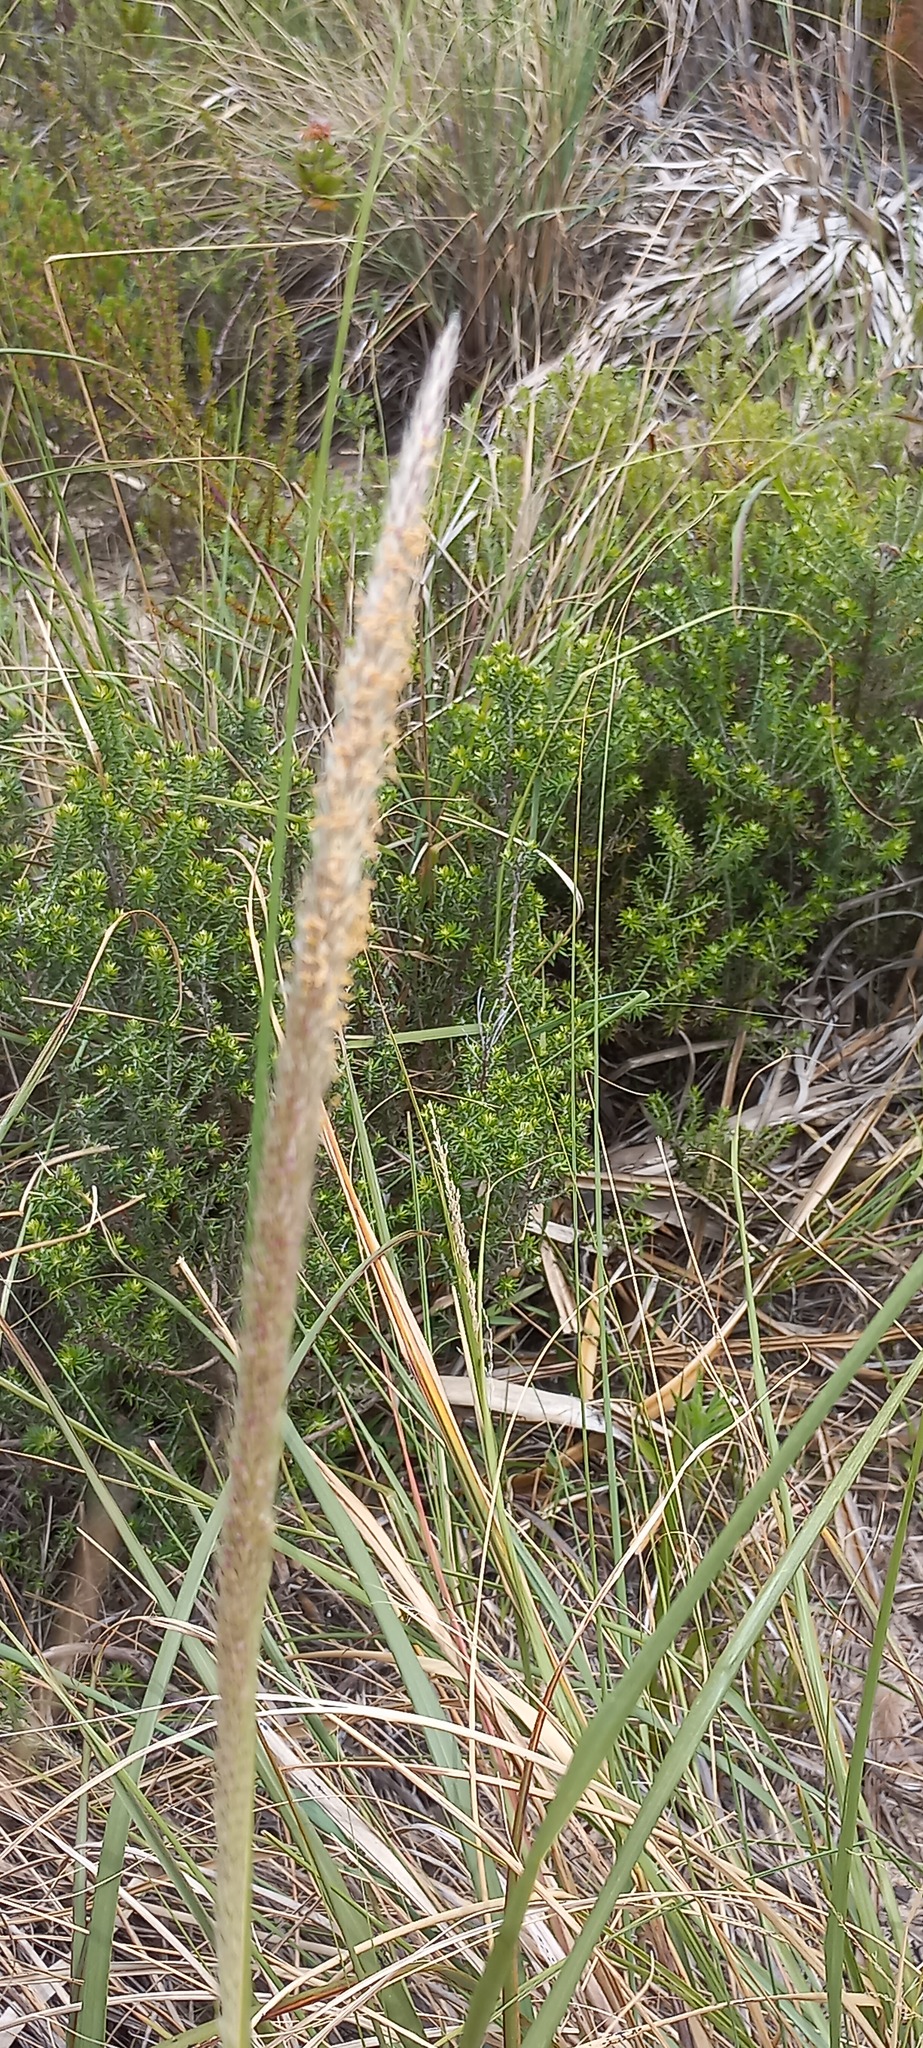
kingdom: Plantae
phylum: Tracheophyta
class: Liliopsida
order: Poales
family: Poaceae
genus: Cenchrus
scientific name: Cenchrus caudatus
